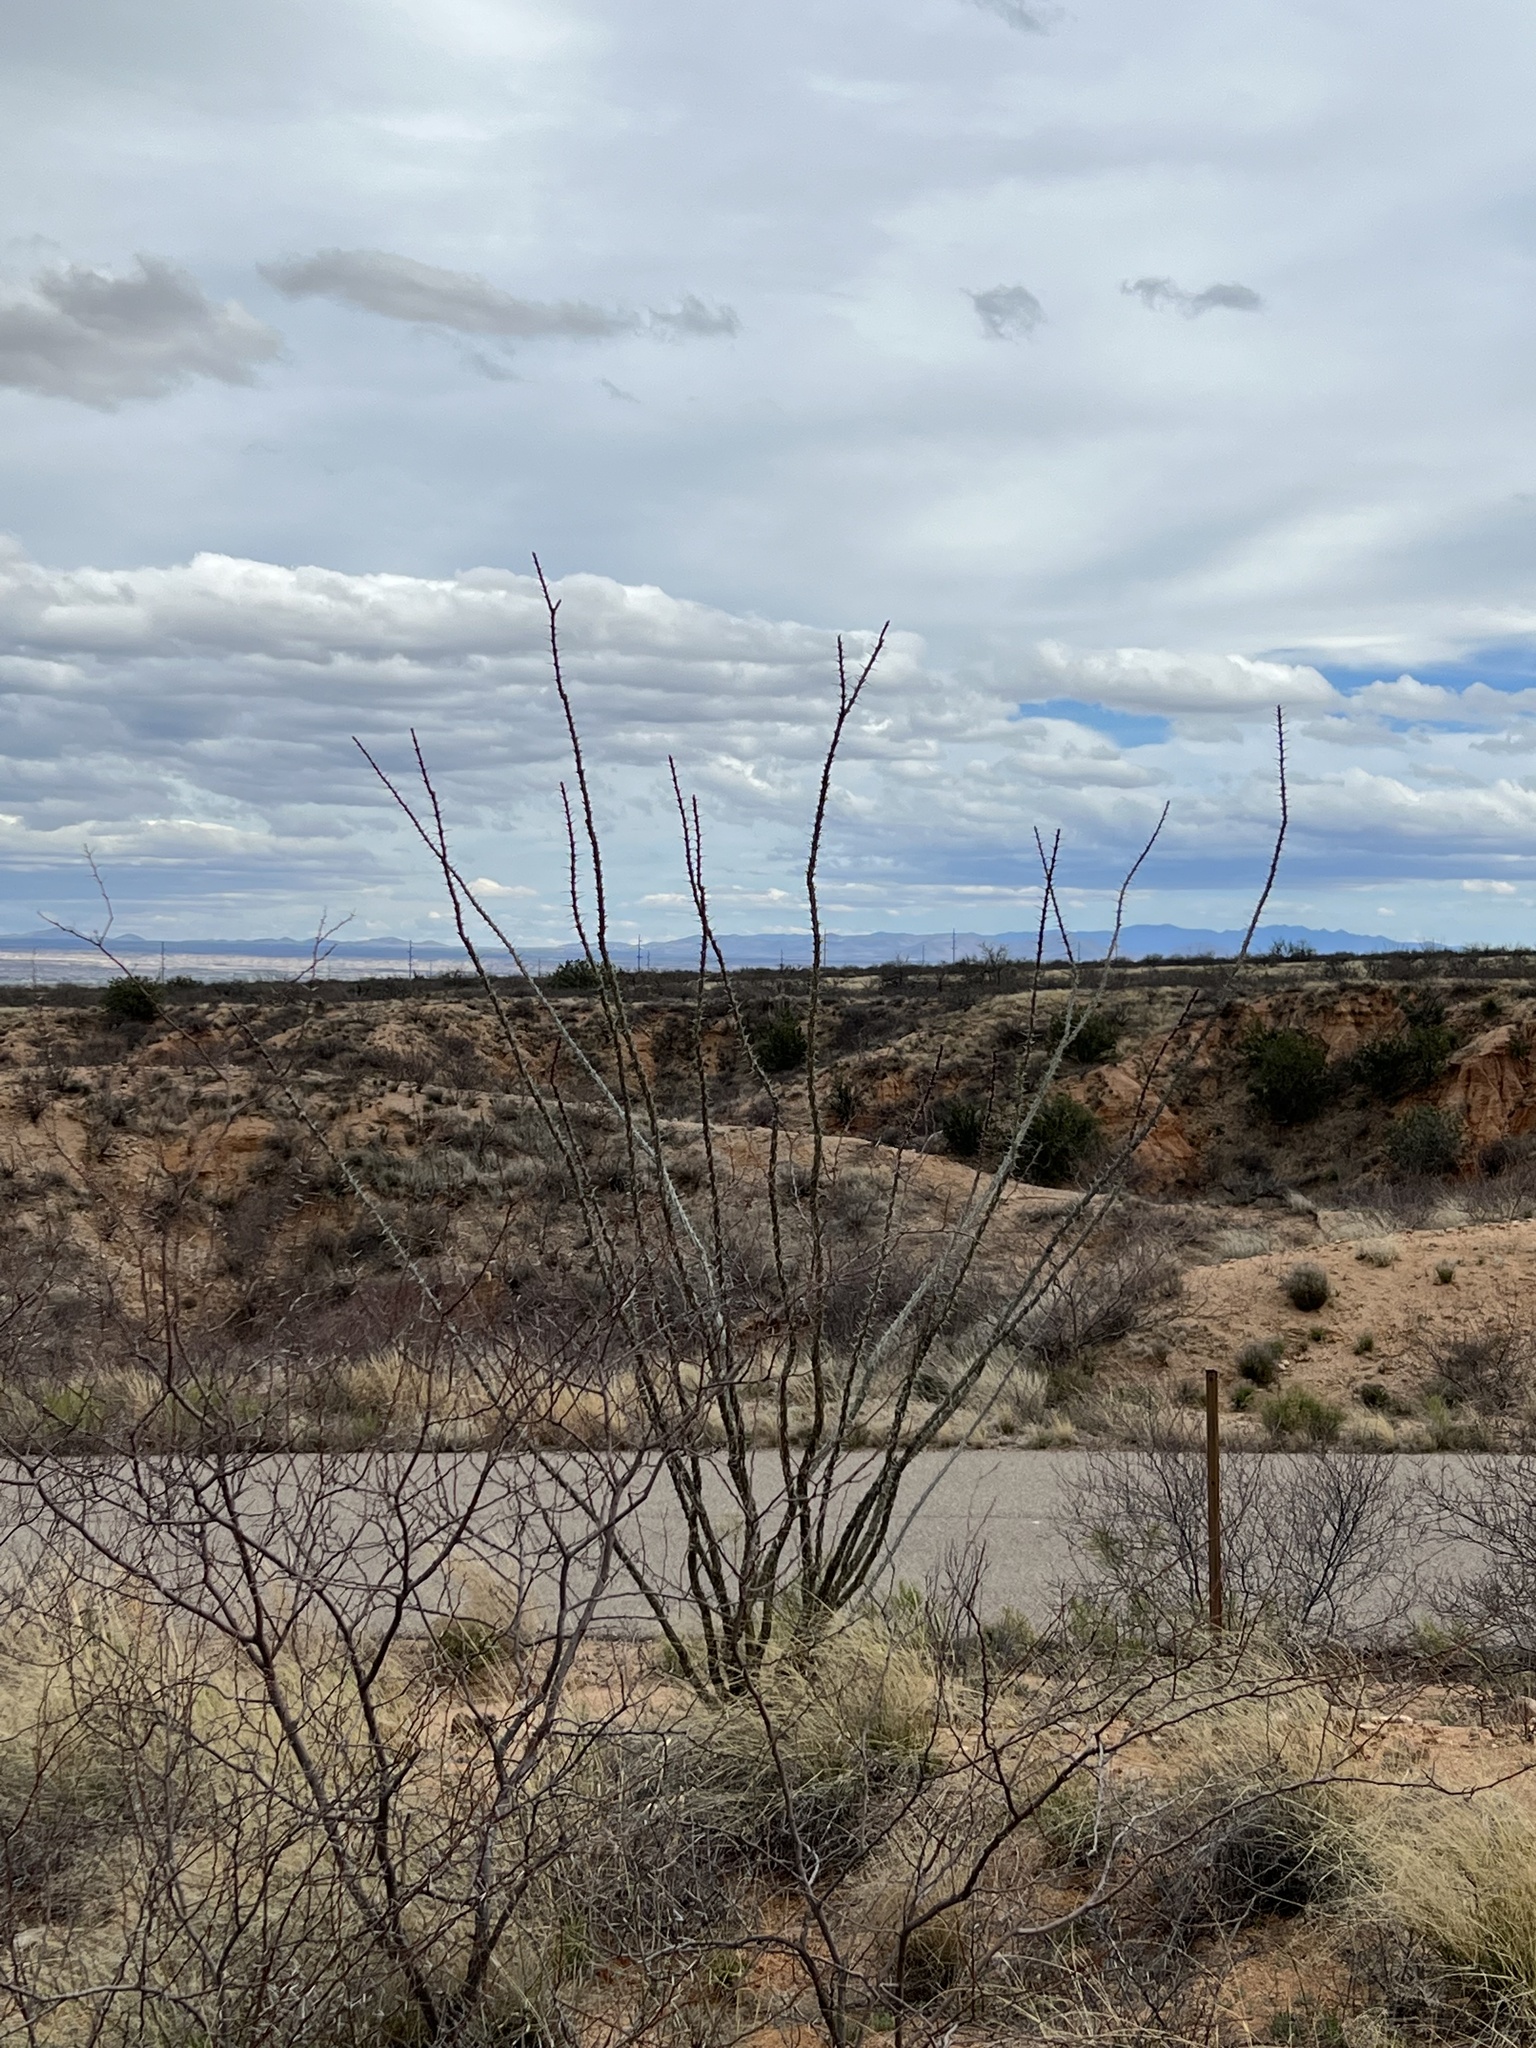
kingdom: Plantae
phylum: Tracheophyta
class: Magnoliopsida
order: Ericales
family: Fouquieriaceae
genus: Fouquieria
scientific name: Fouquieria splendens
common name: Vine-cactus
